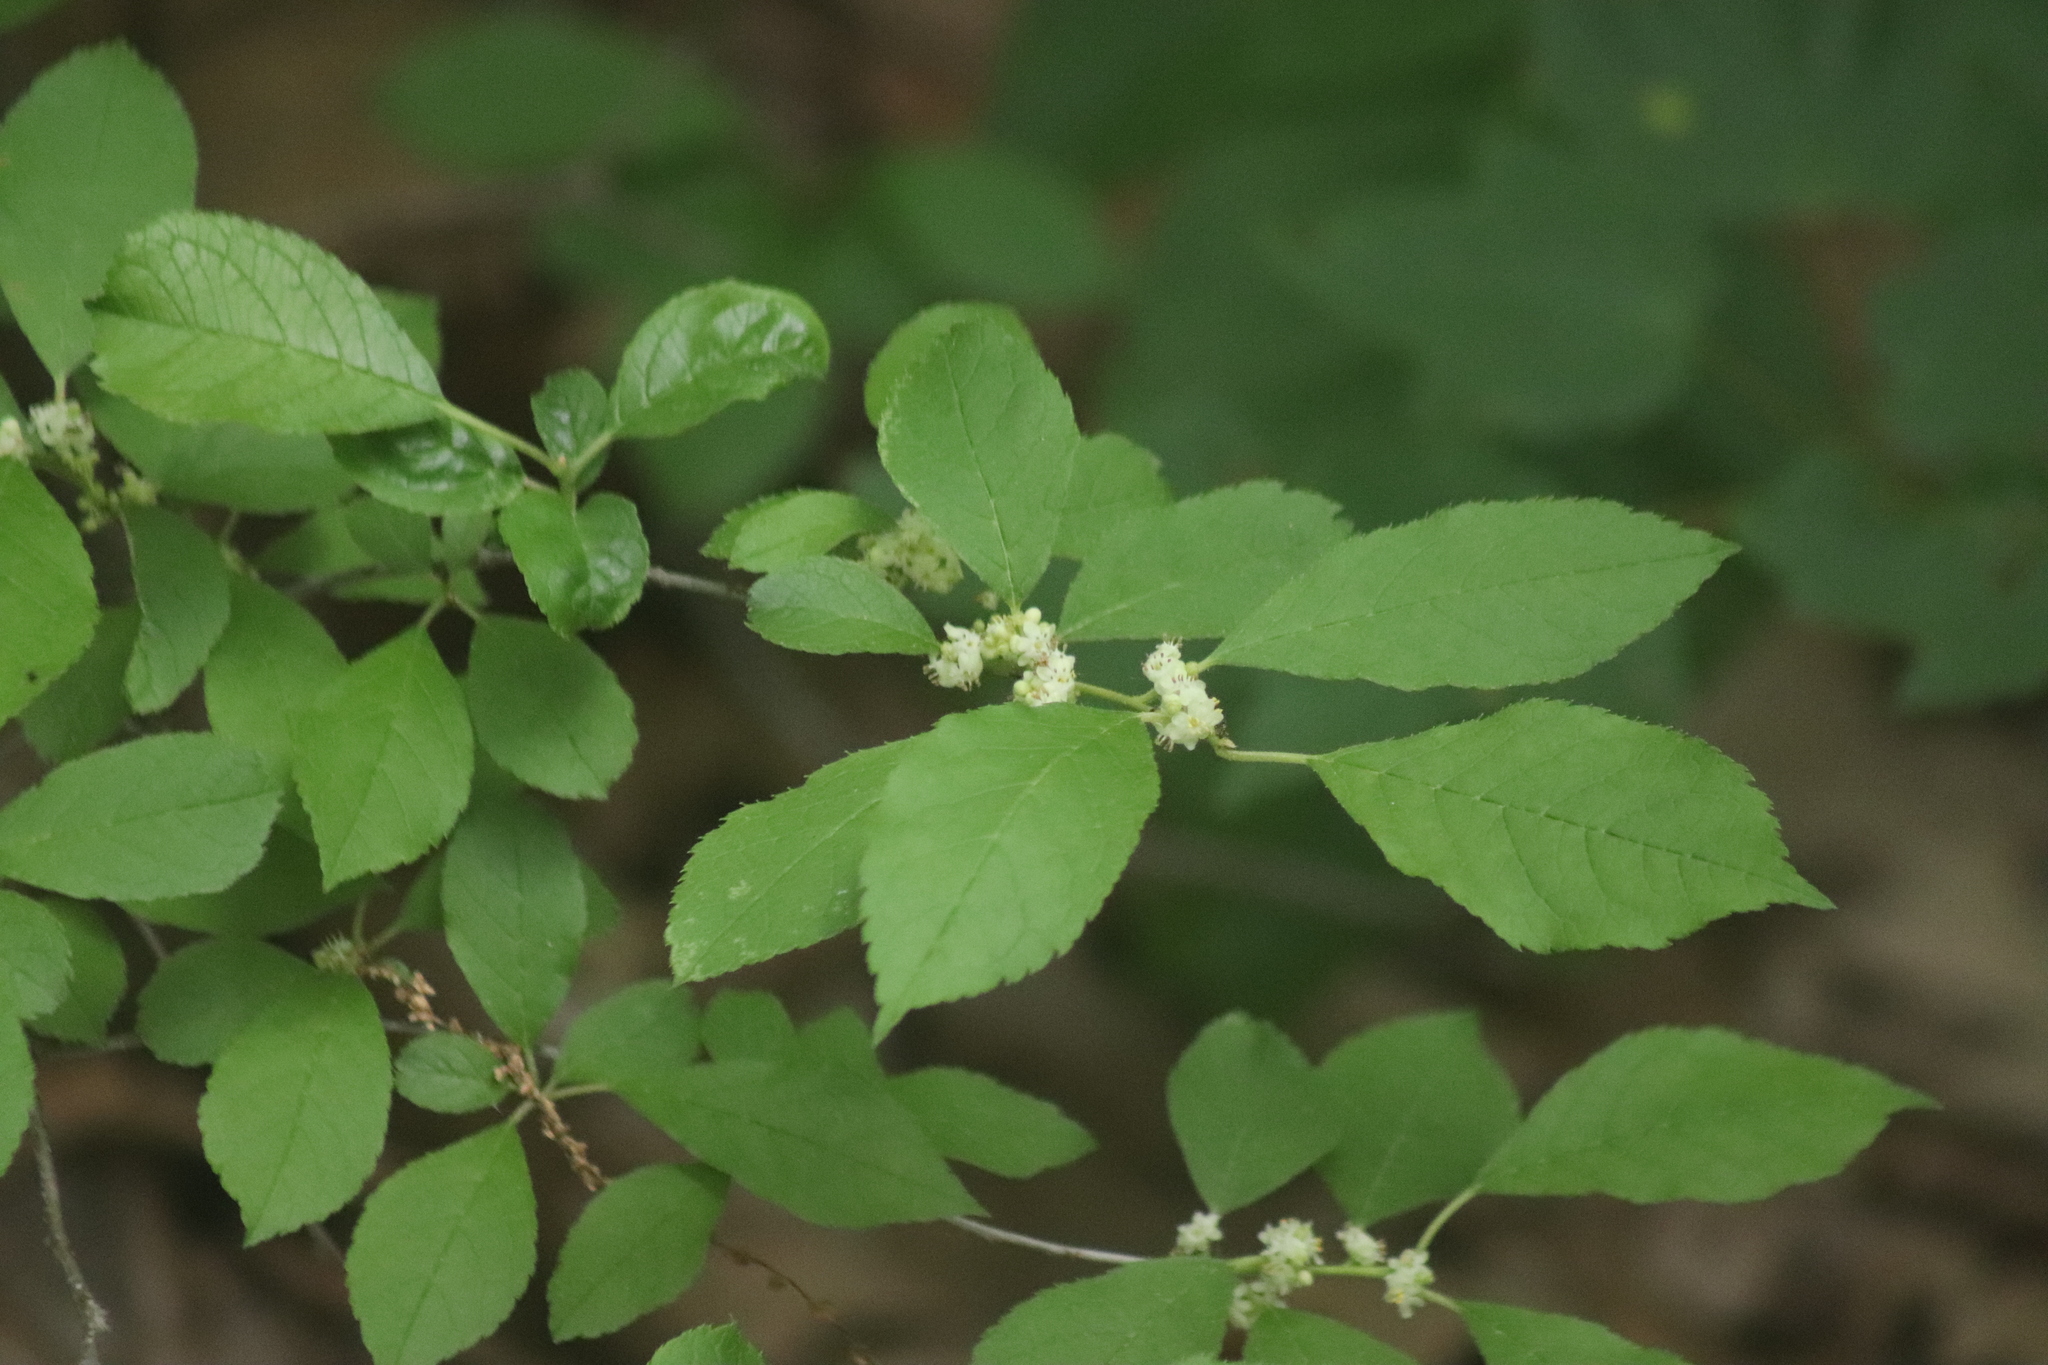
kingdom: Plantae
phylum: Tracheophyta
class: Magnoliopsida
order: Aquifoliales
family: Aquifoliaceae
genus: Ilex
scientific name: Ilex verticillata
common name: Virginia winterberry
